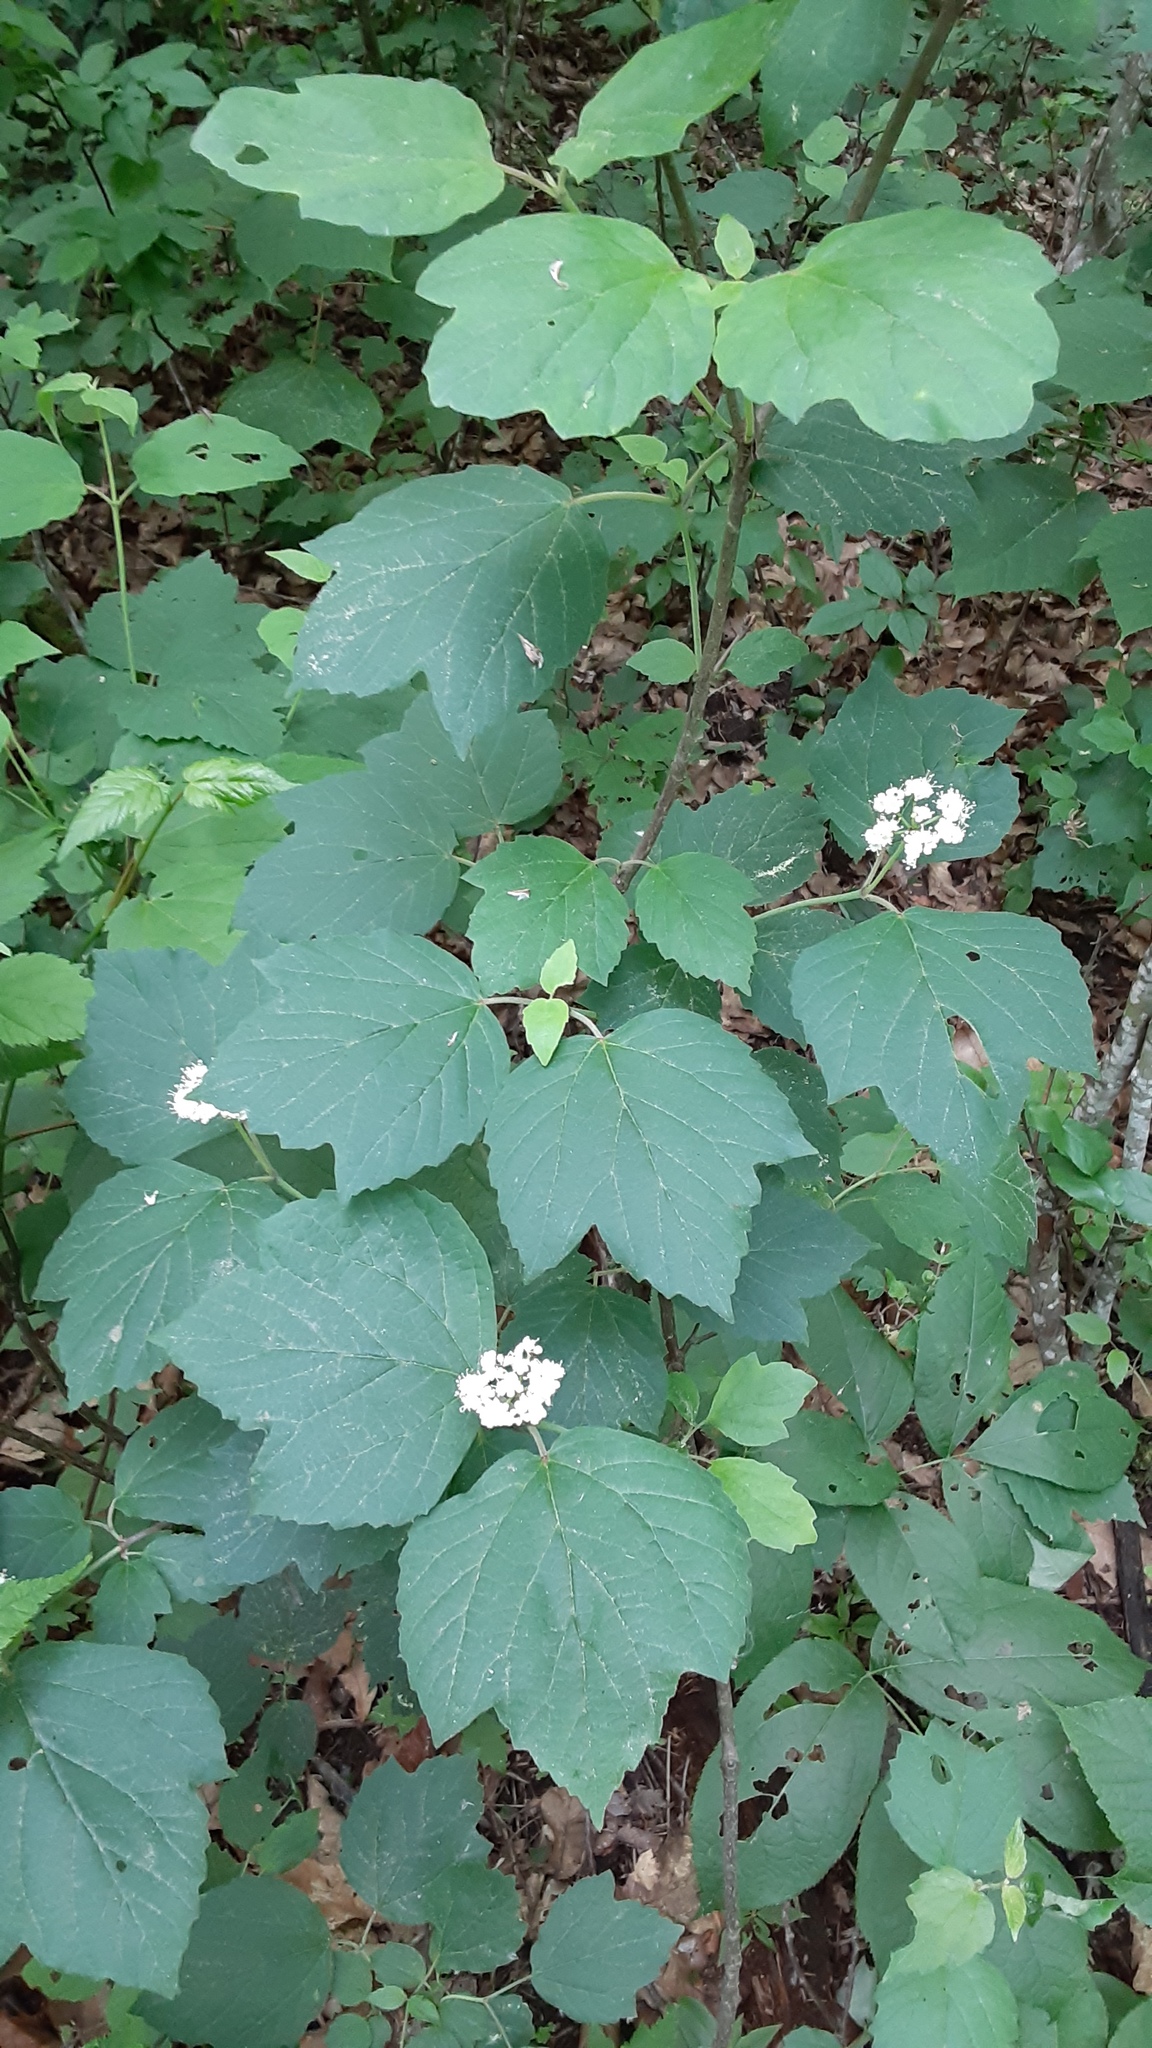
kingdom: Plantae
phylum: Tracheophyta
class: Magnoliopsida
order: Dipsacales
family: Viburnaceae
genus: Viburnum
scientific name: Viburnum acerifolium
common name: Dockmackie
